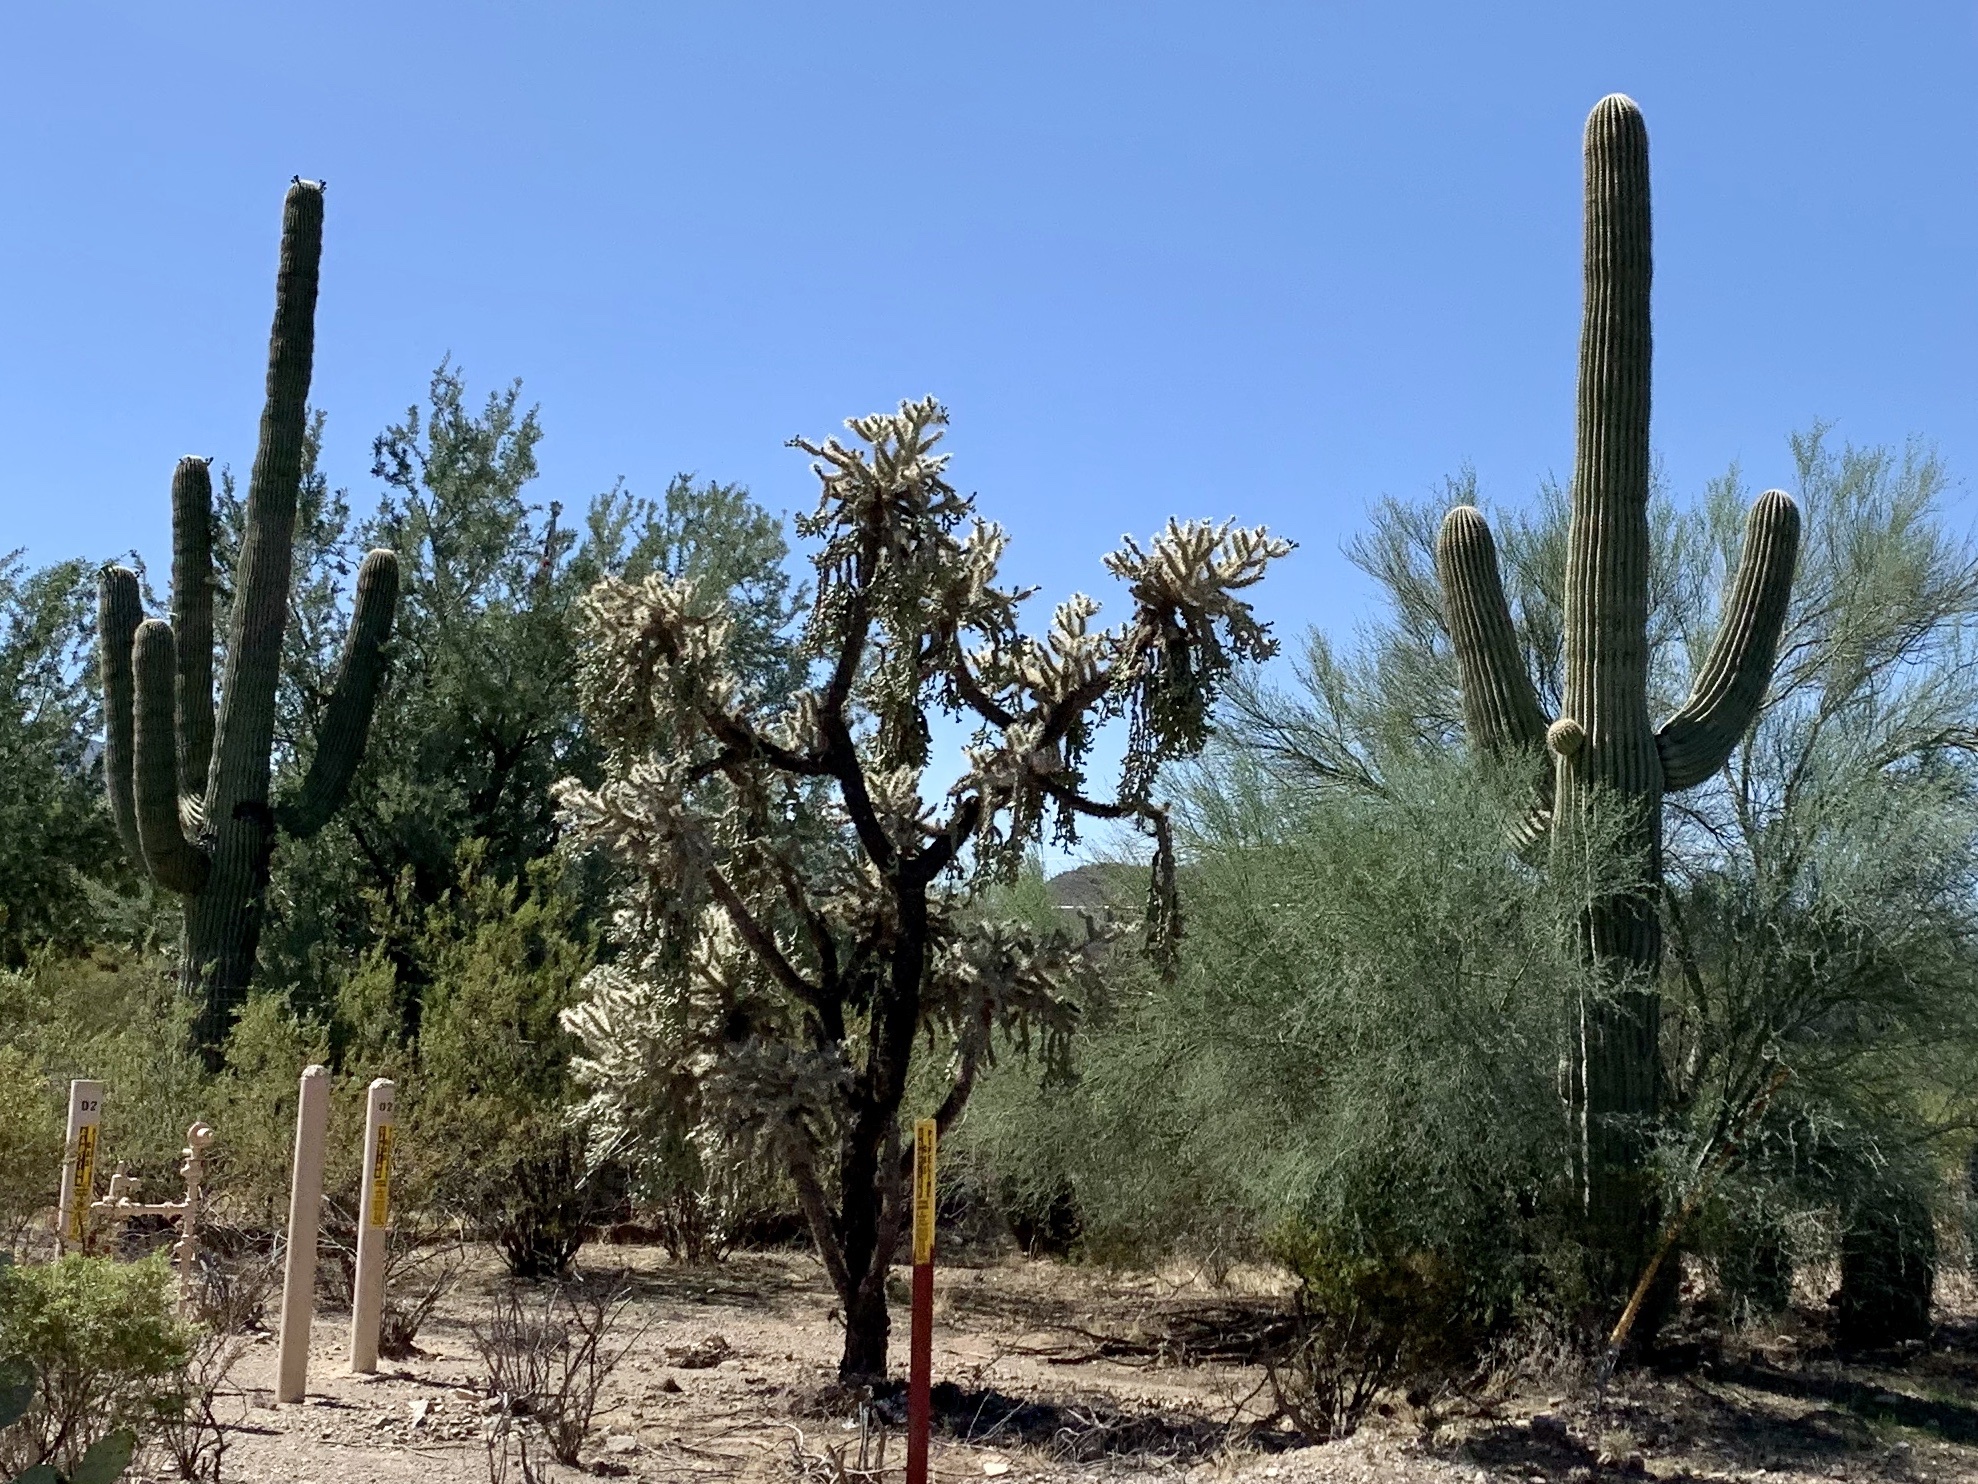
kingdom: Plantae
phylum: Tracheophyta
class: Magnoliopsida
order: Caryophyllales
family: Cactaceae
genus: Cylindropuntia
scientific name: Cylindropuntia fulgida
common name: Jumping cholla
